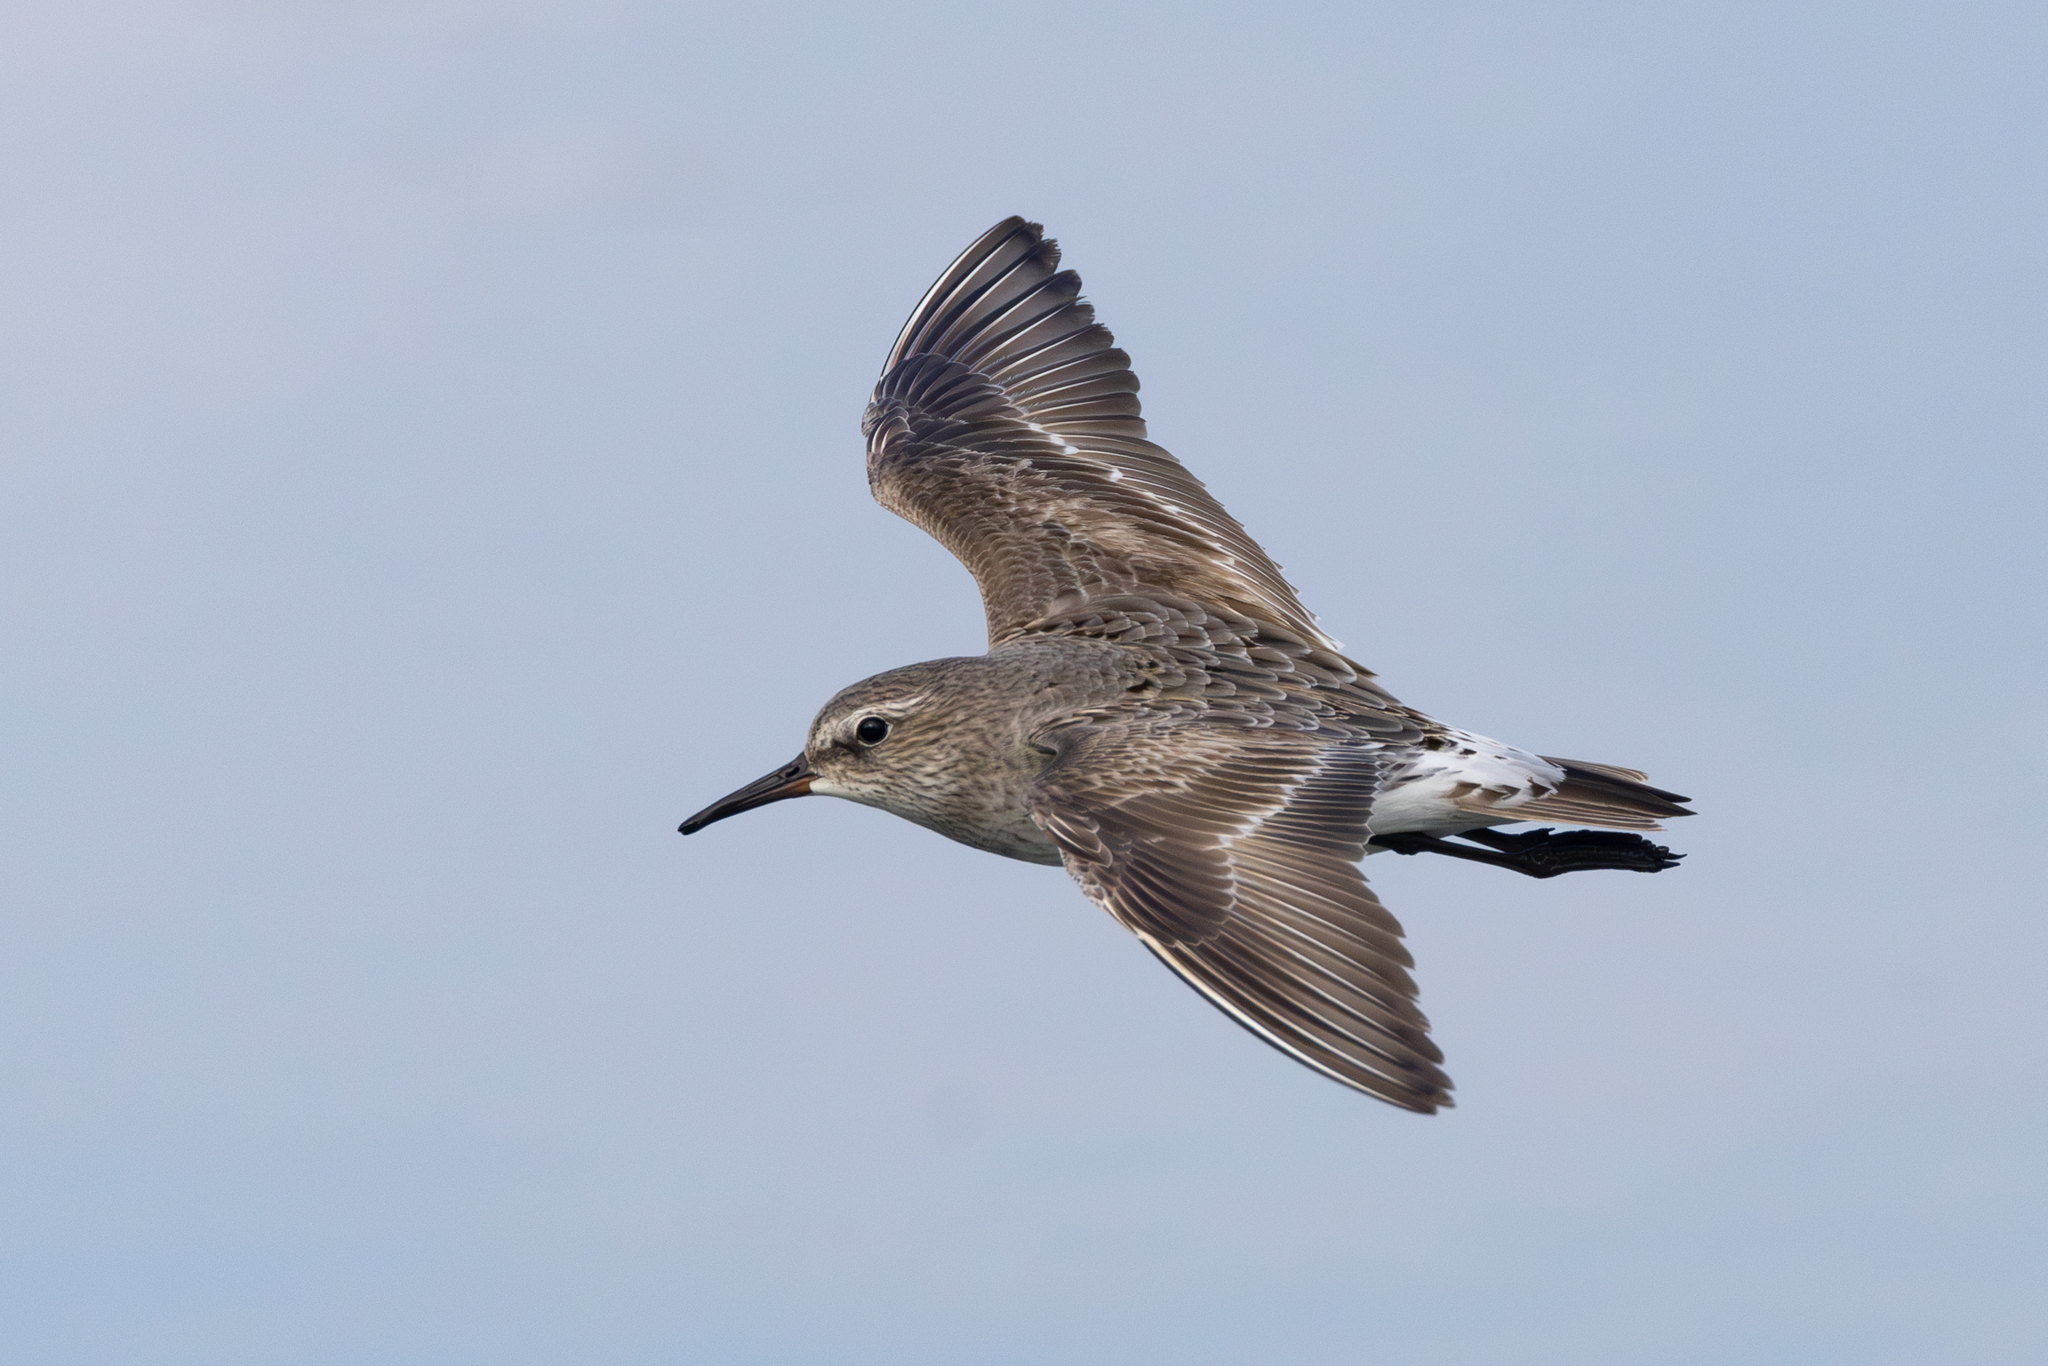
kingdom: Animalia
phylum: Chordata
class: Aves
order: Charadriiformes
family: Scolopacidae
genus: Calidris
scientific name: Calidris fuscicollis
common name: White-rumped sandpiper
